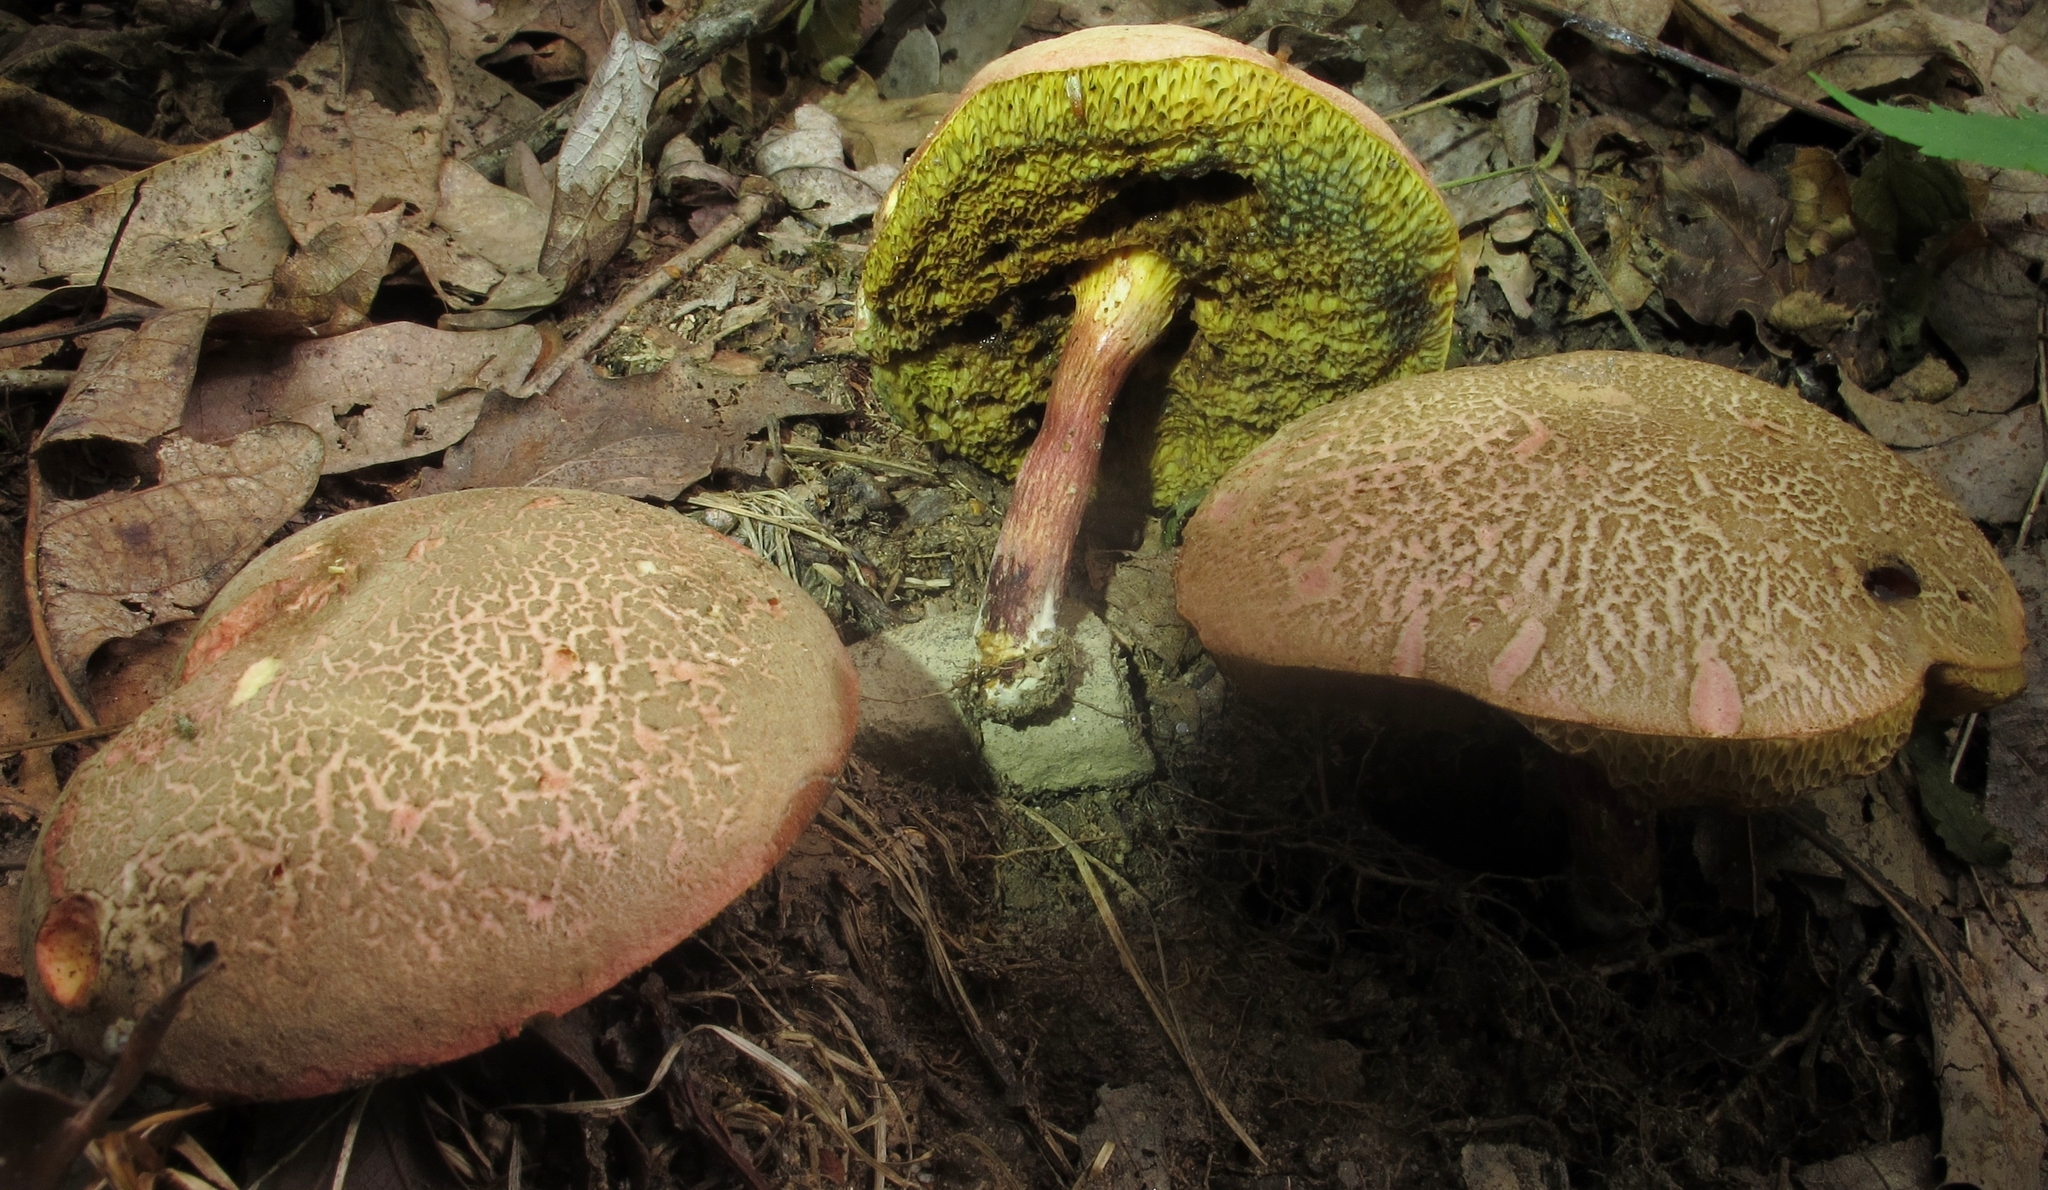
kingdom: Fungi
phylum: Basidiomycota
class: Agaricomycetes
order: Boletales
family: Boletaceae
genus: Xerocomellus
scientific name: Xerocomellus chrysenteron
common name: Red-cracking bolete
